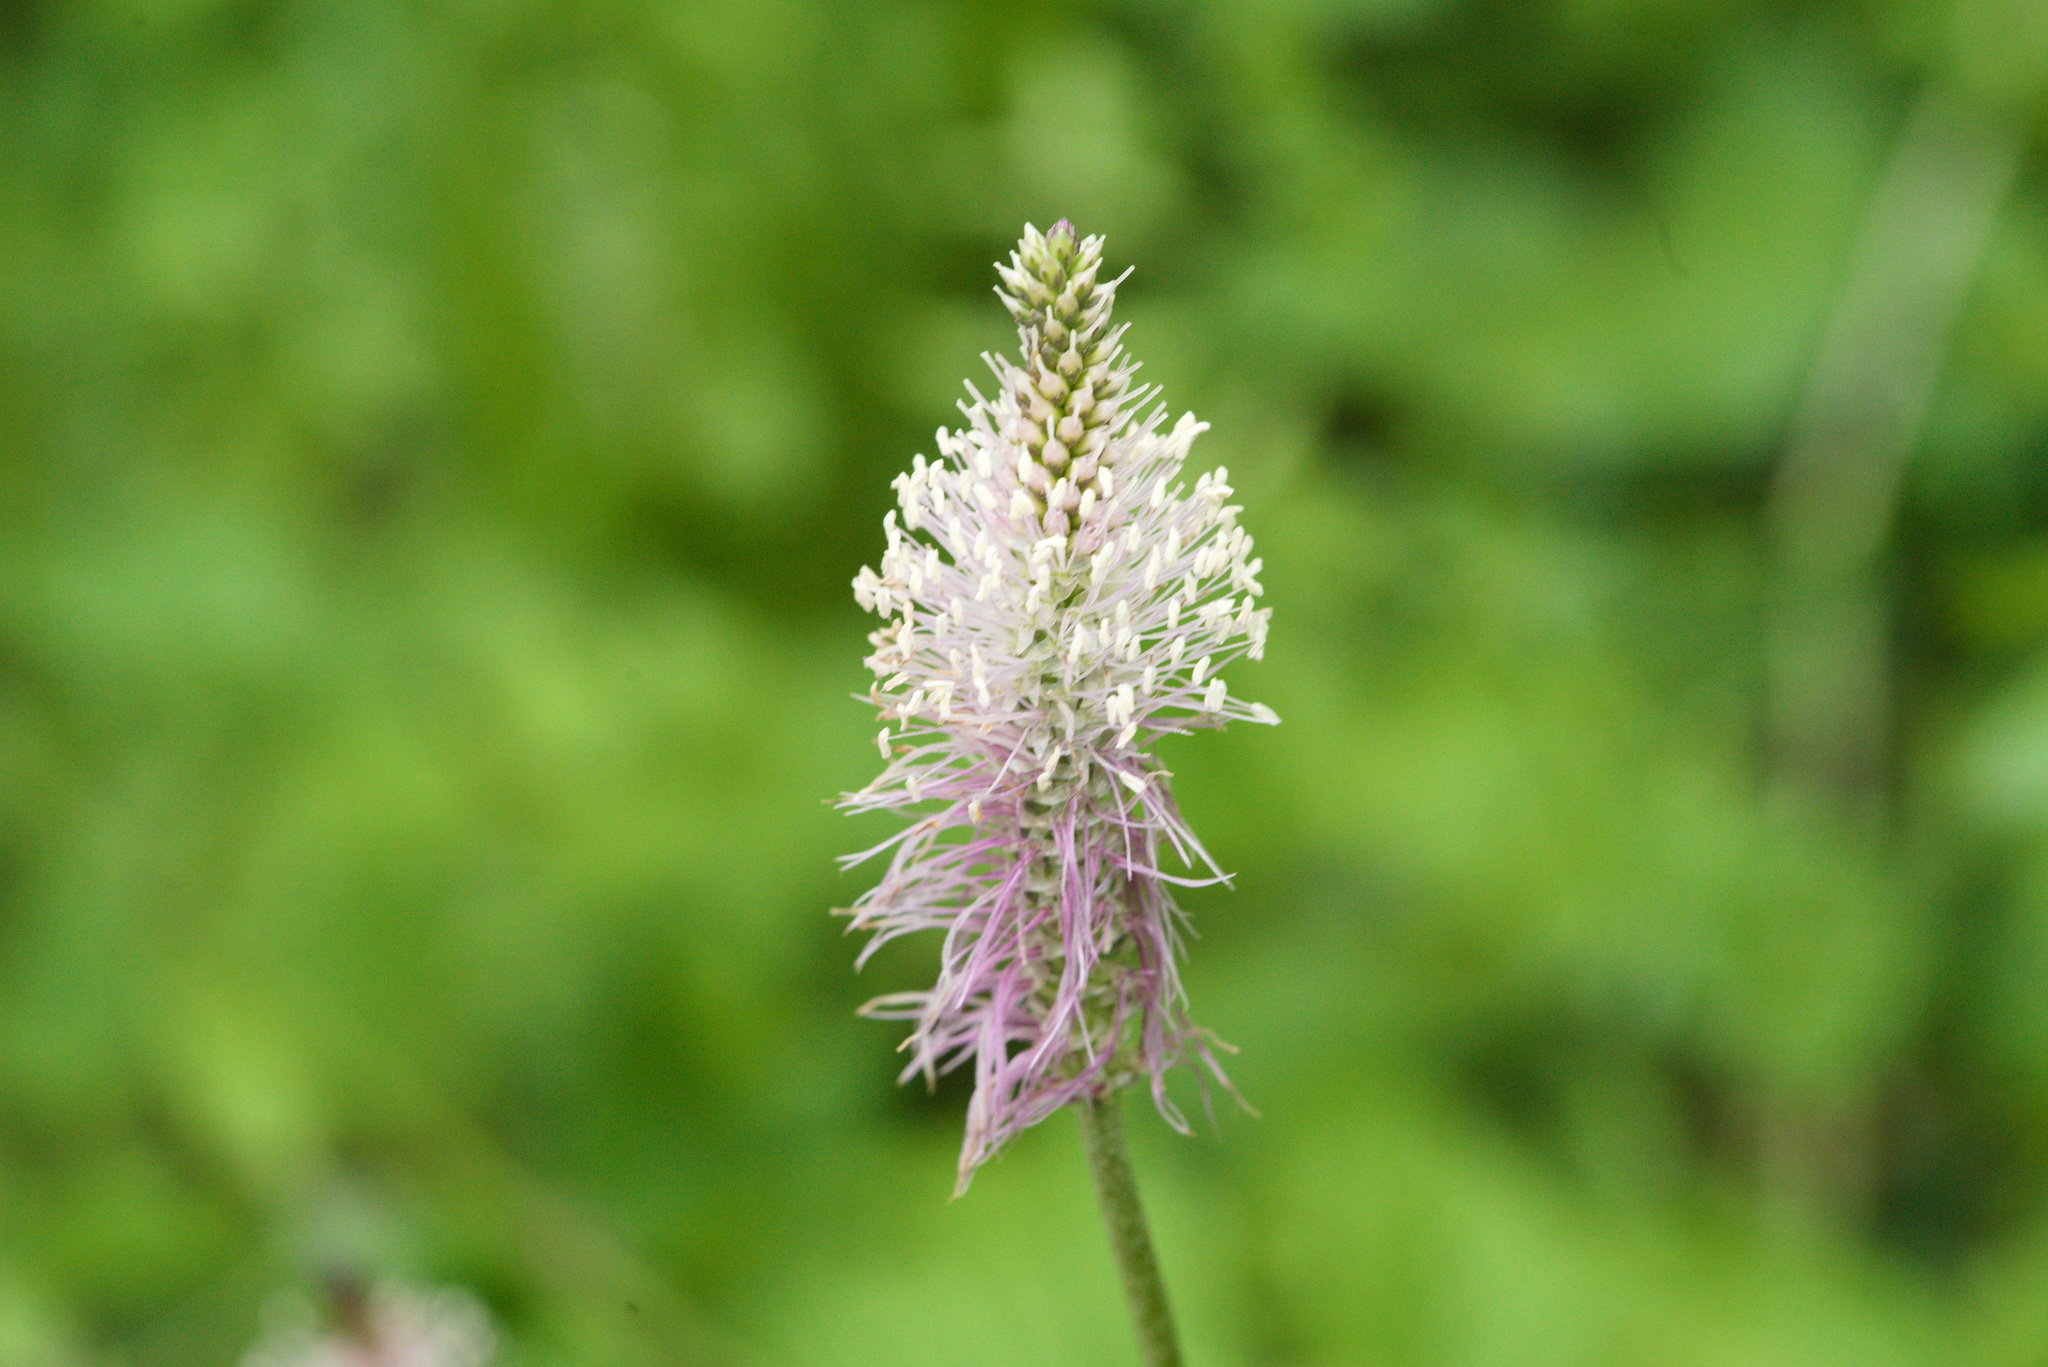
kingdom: Plantae
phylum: Tracheophyta
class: Magnoliopsida
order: Lamiales
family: Plantaginaceae
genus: Plantago
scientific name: Plantago media
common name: Hoary plantain
